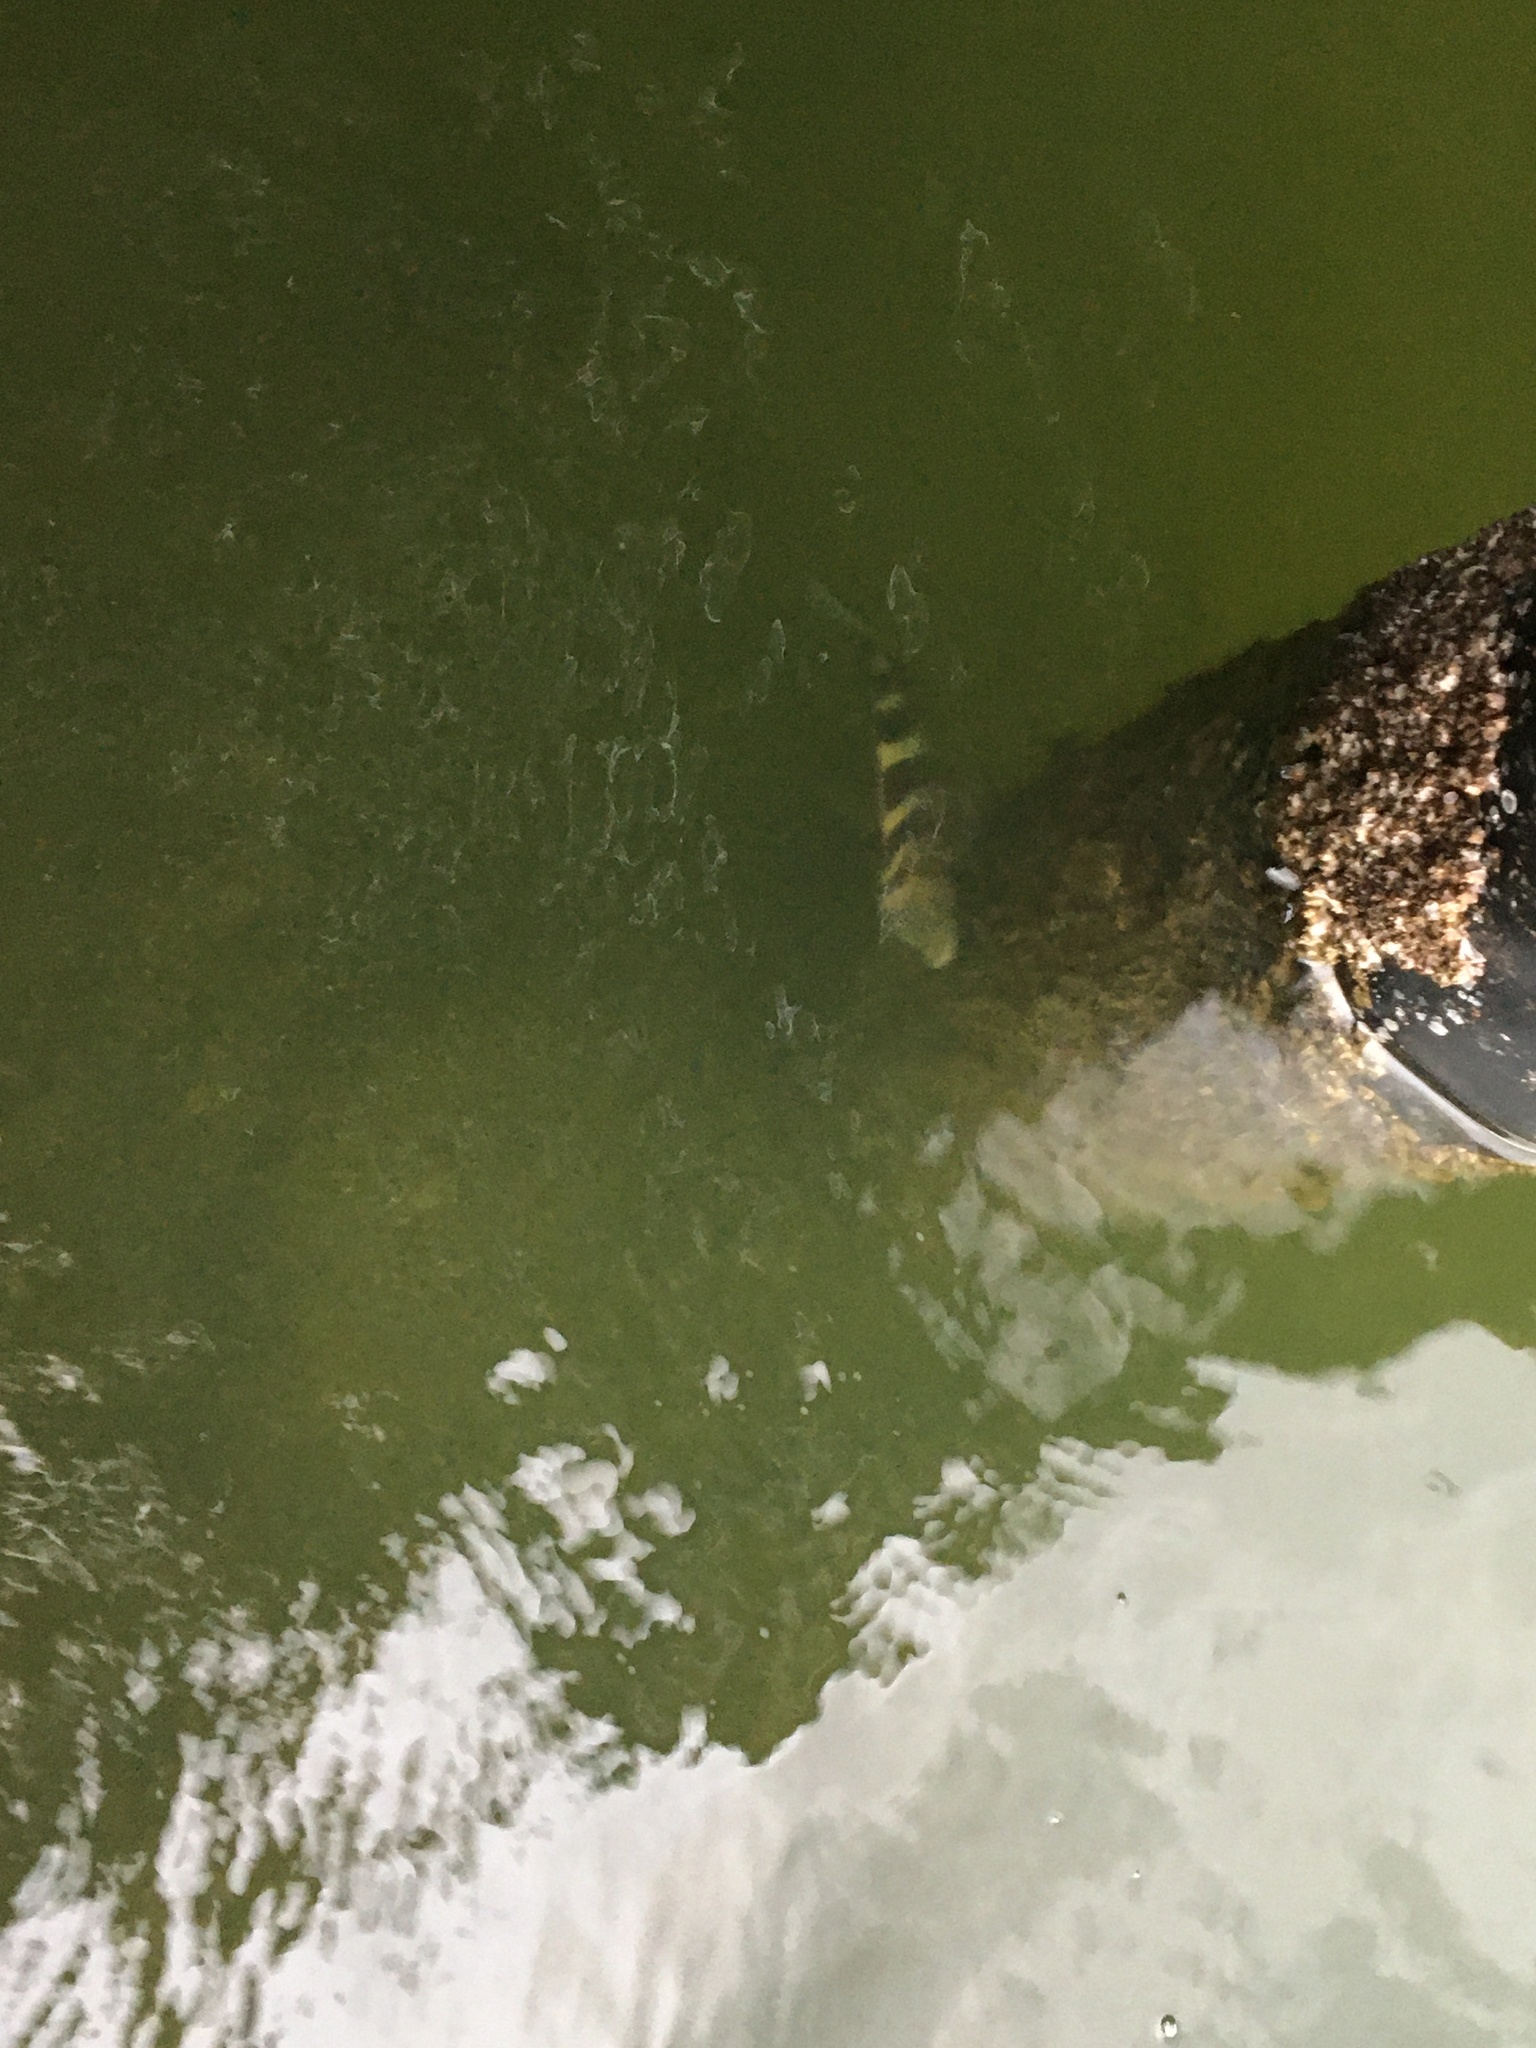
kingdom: Animalia
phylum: Chordata
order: Perciformes
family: Sparidae
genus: Archosargus
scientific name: Archosargus probatocephalus
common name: Sheepshead
